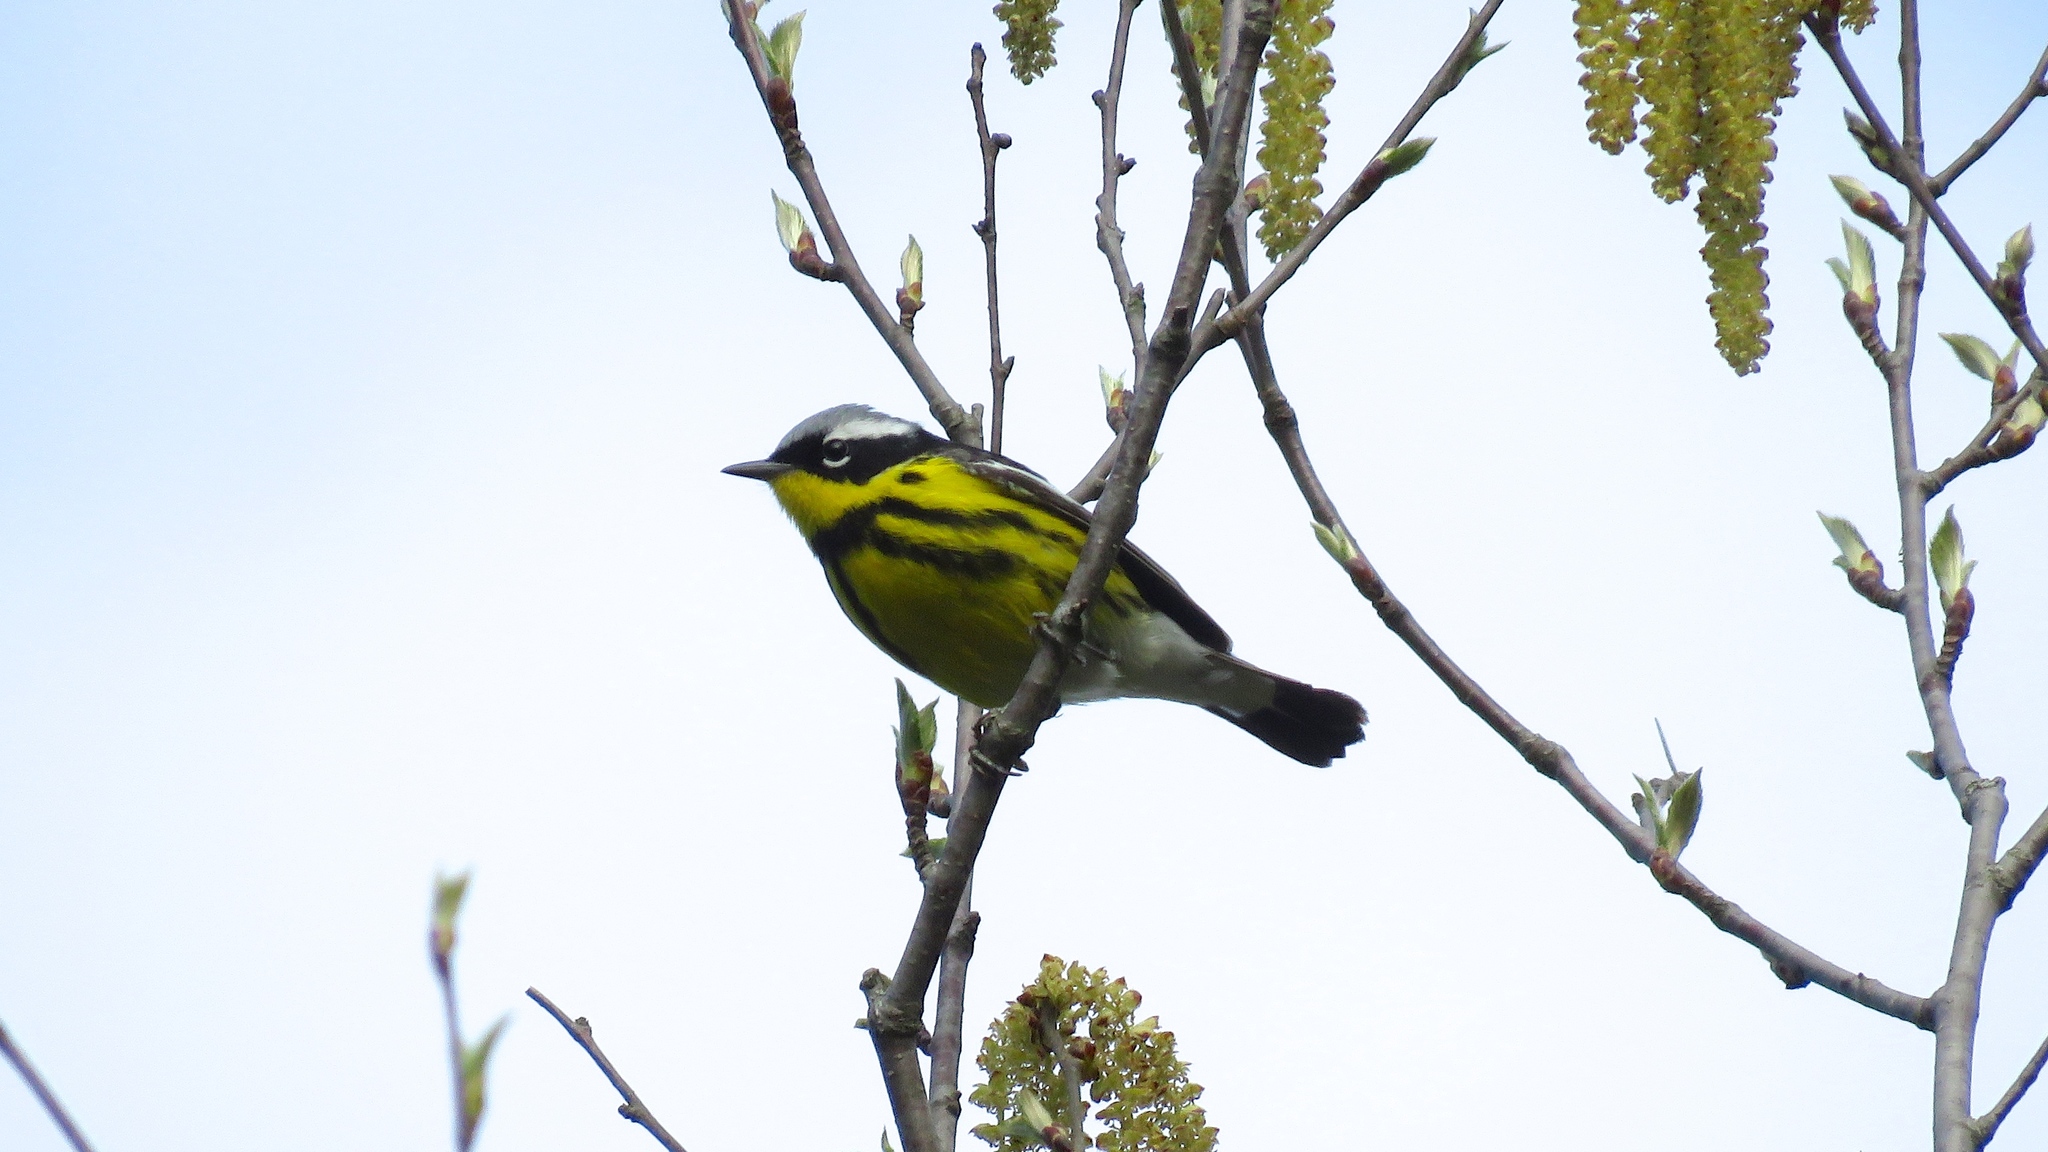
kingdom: Animalia
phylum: Chordata
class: Aves
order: Passeriformes
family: Parulidae
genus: Setophaga
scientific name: Setophaga magnolia
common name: Magnolia warbler
